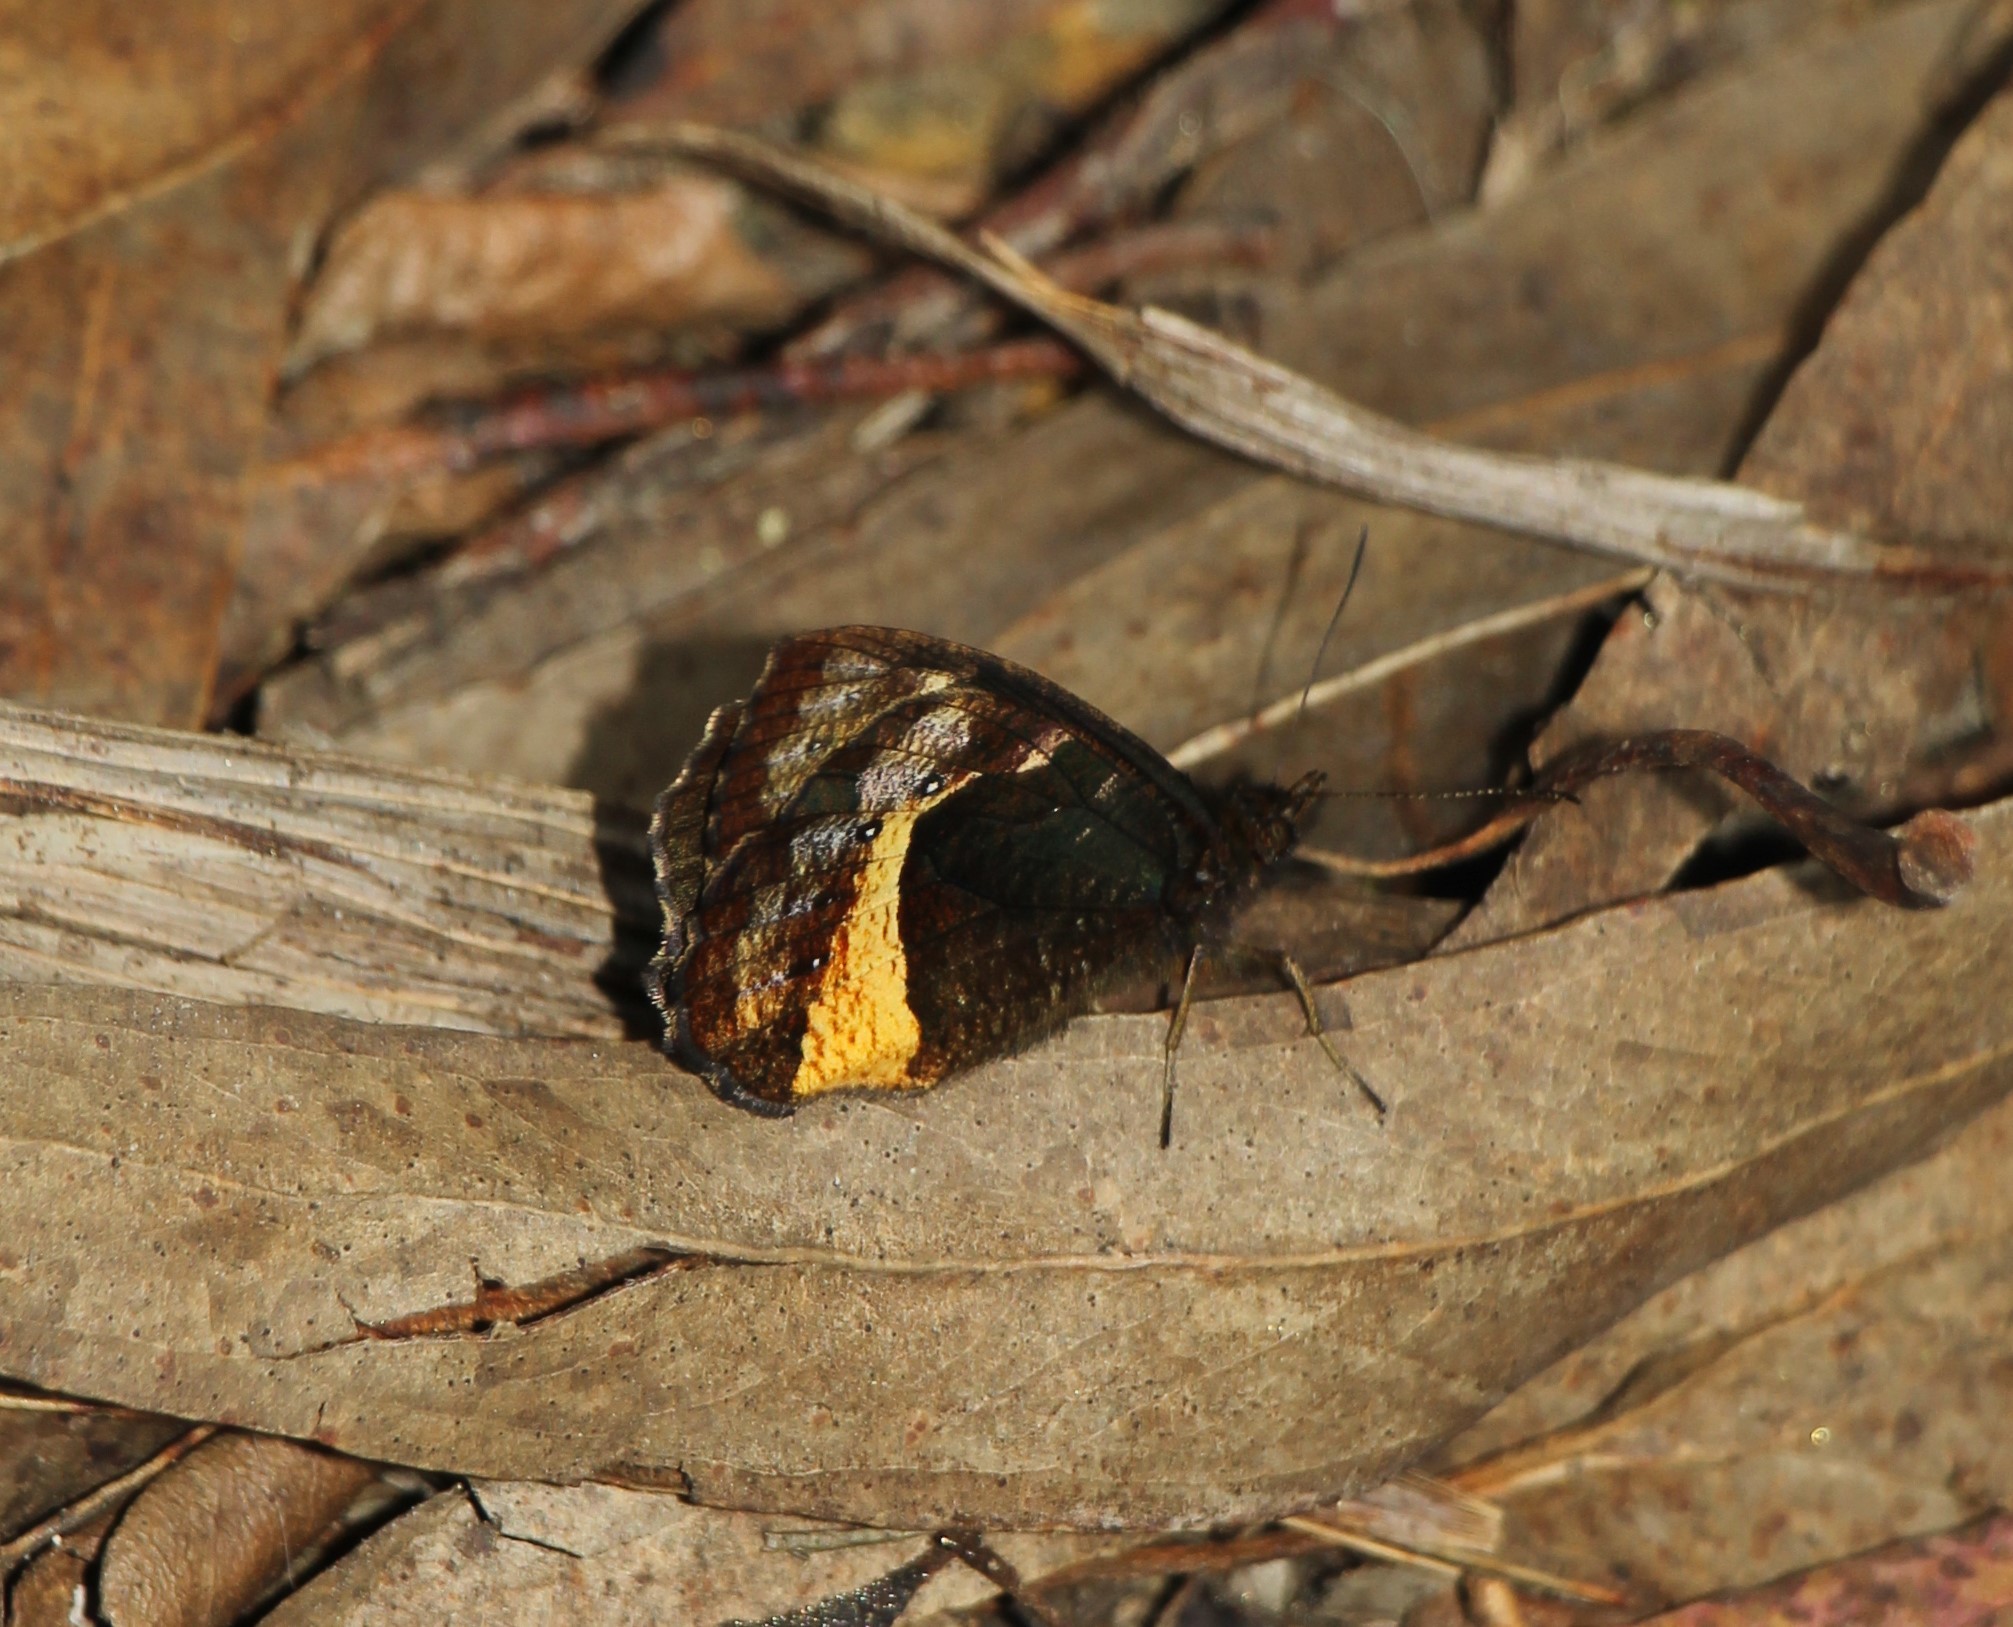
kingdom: Animalia
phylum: Arthropoda
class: Insecta
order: Lepidoptera
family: Nymphalidae
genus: Pedaliodes
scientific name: Pedaliodes
